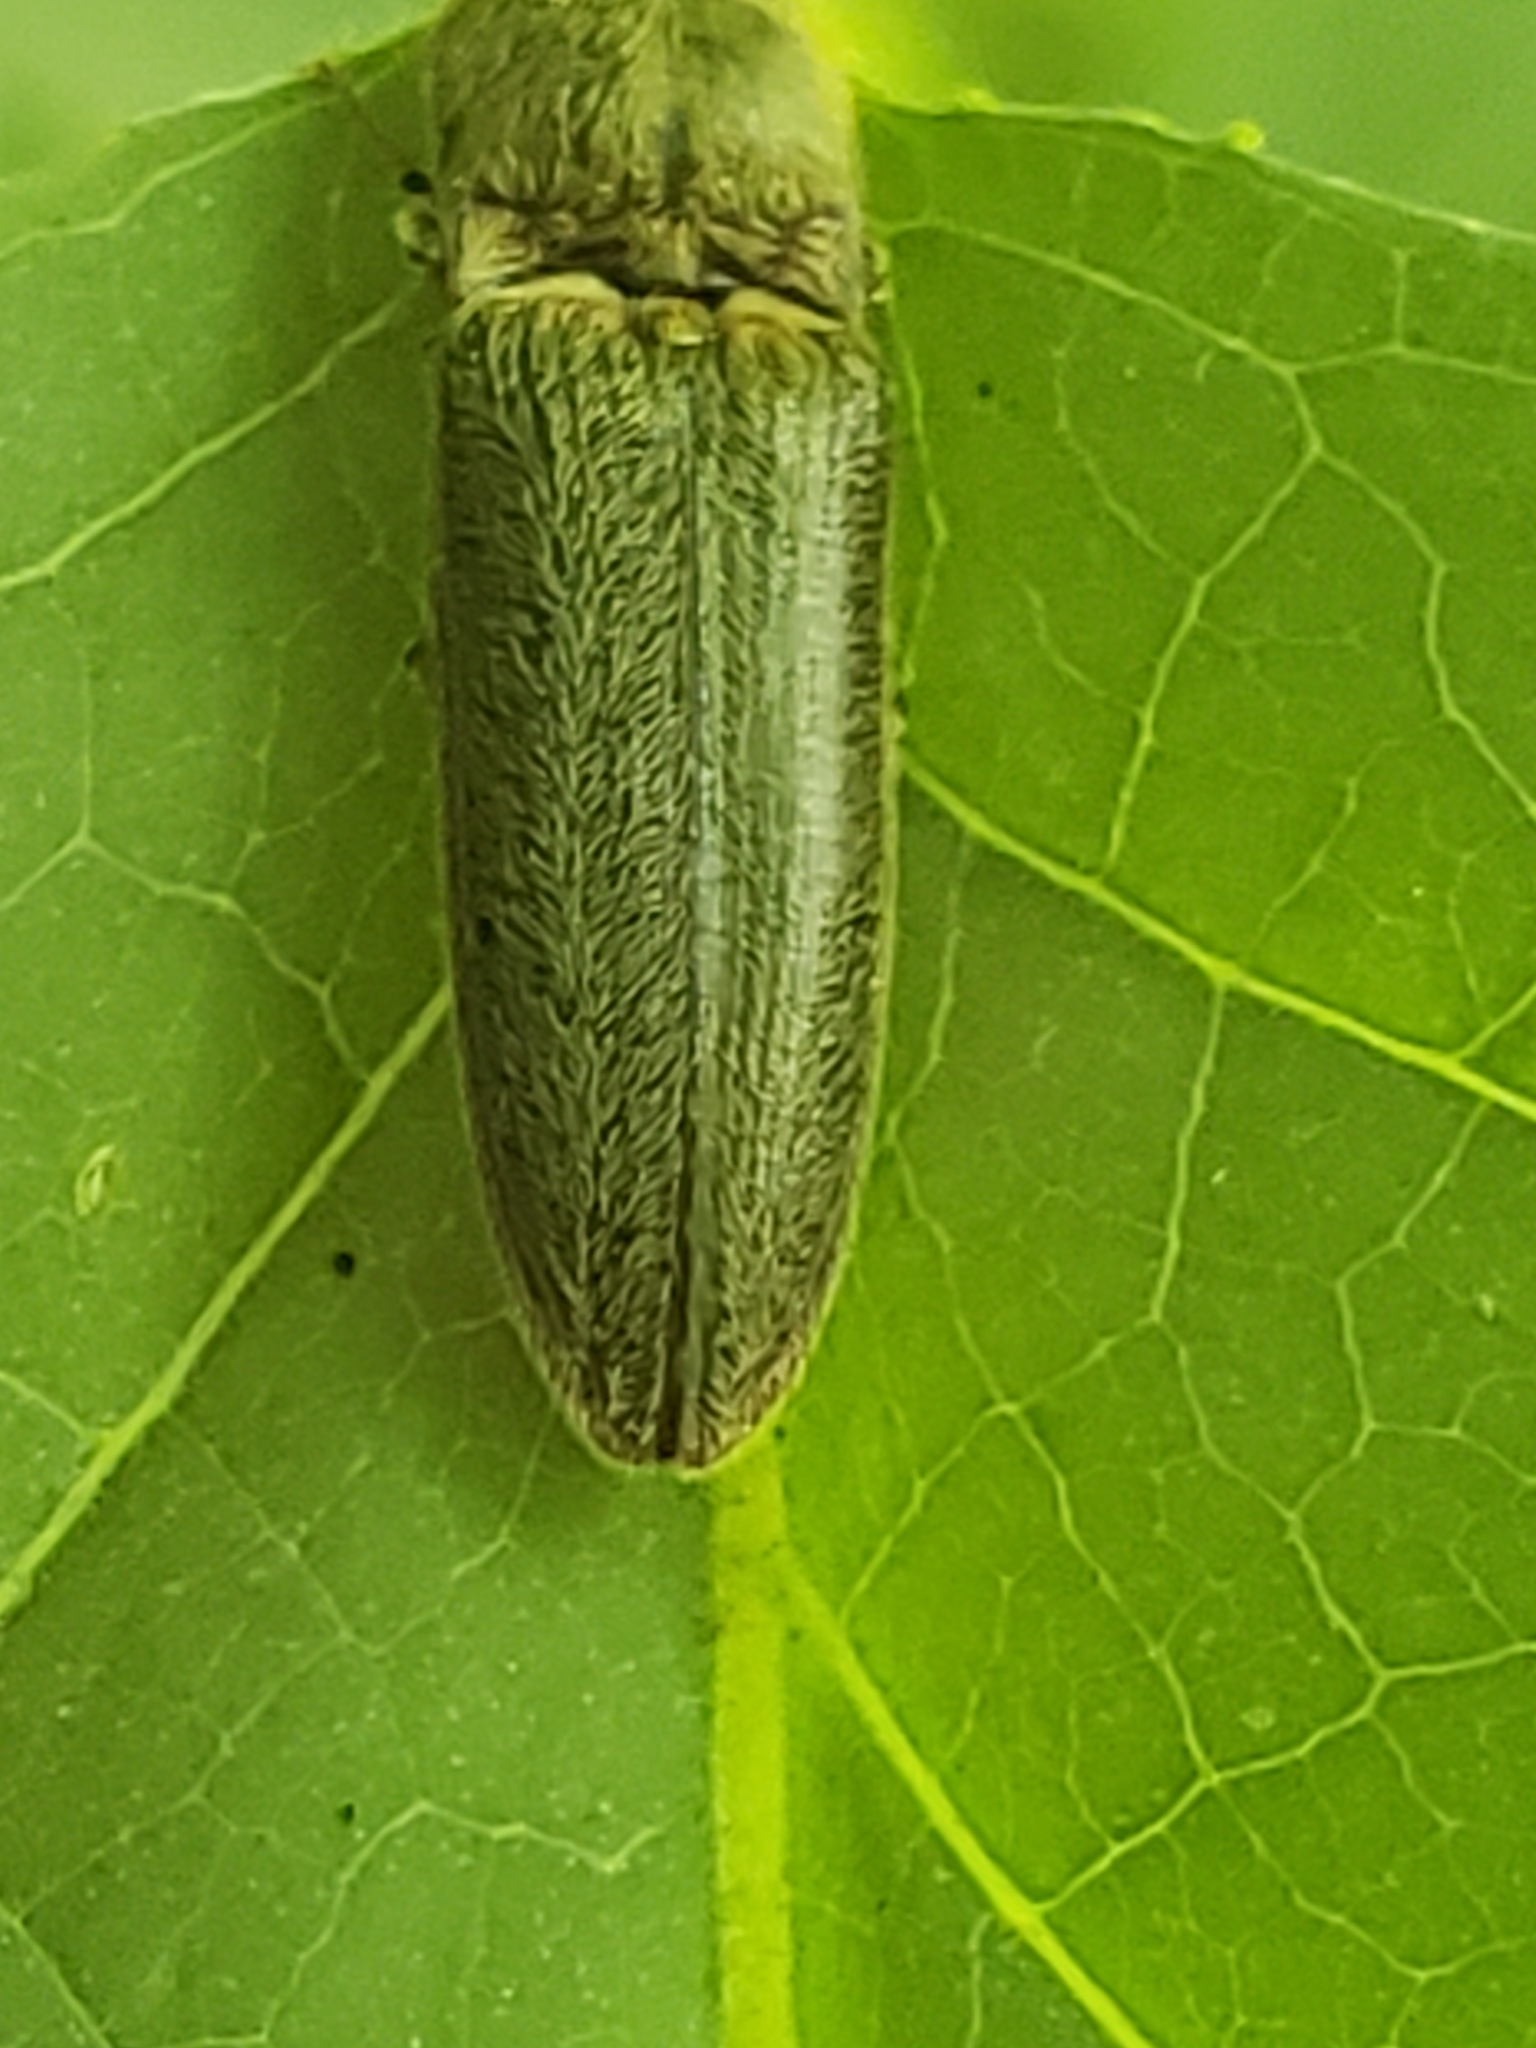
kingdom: Animalia
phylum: Arthropoda
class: Insecta
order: Coleoptera
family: Elateridae
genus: Gambrinus
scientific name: Gambrinus griseus
